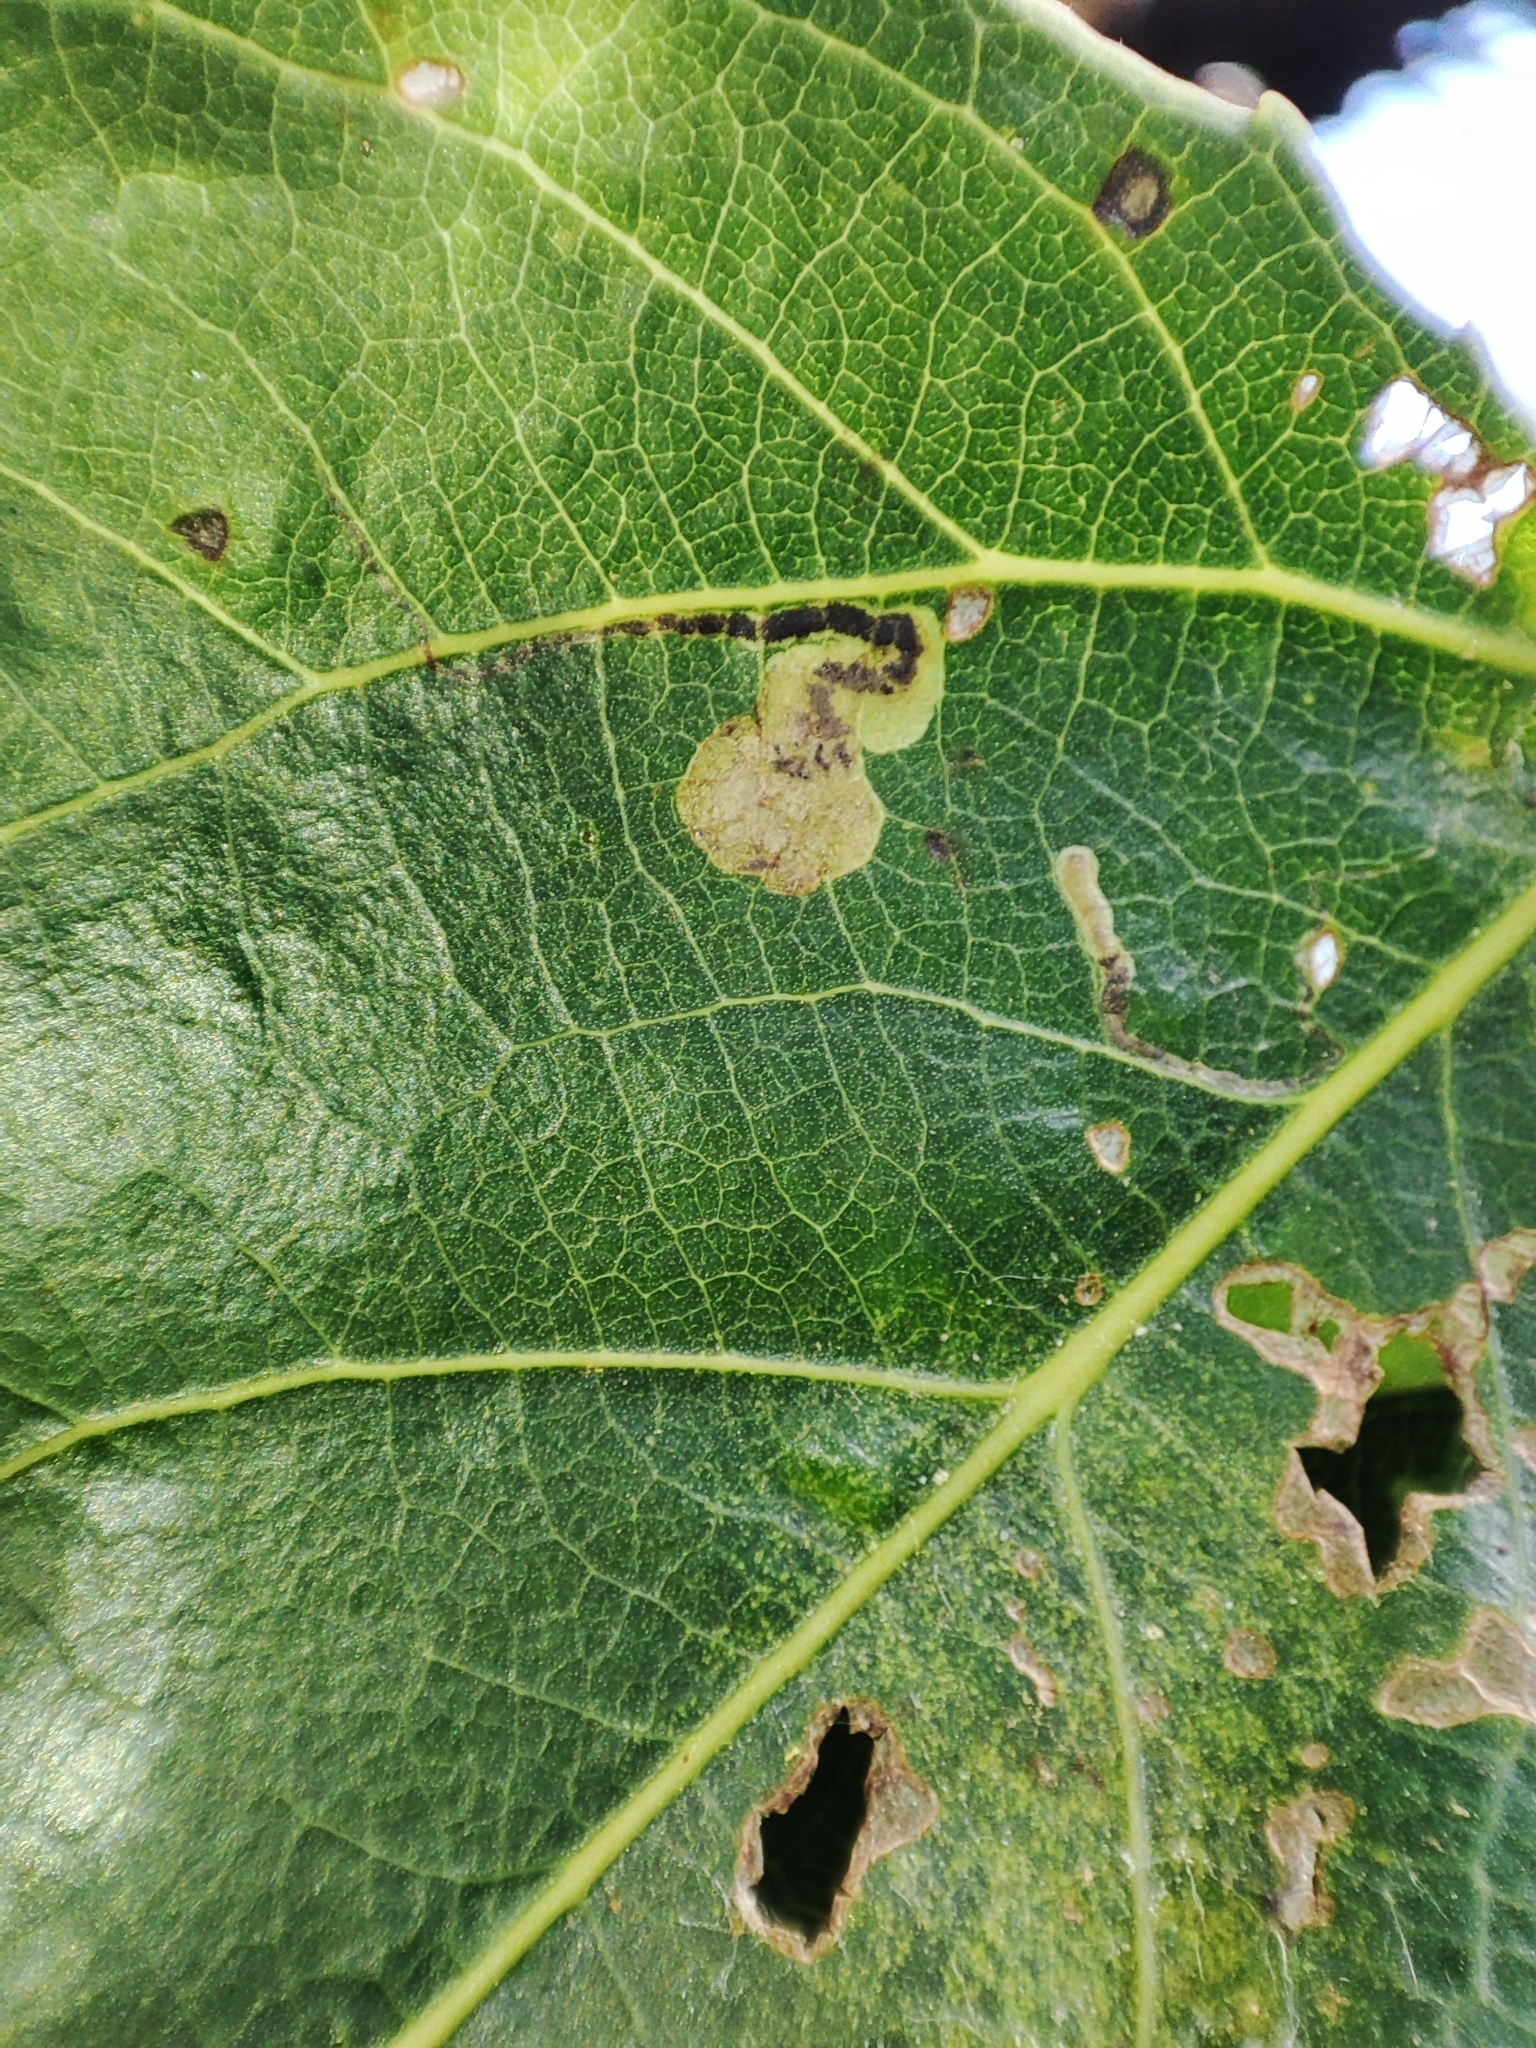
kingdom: Animalia
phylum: Arthropoda
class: Insecta
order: Lepidoptera
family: Nepticulidae
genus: Stigmella
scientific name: Stigmella trimaculella
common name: Black-poplar pigmy
